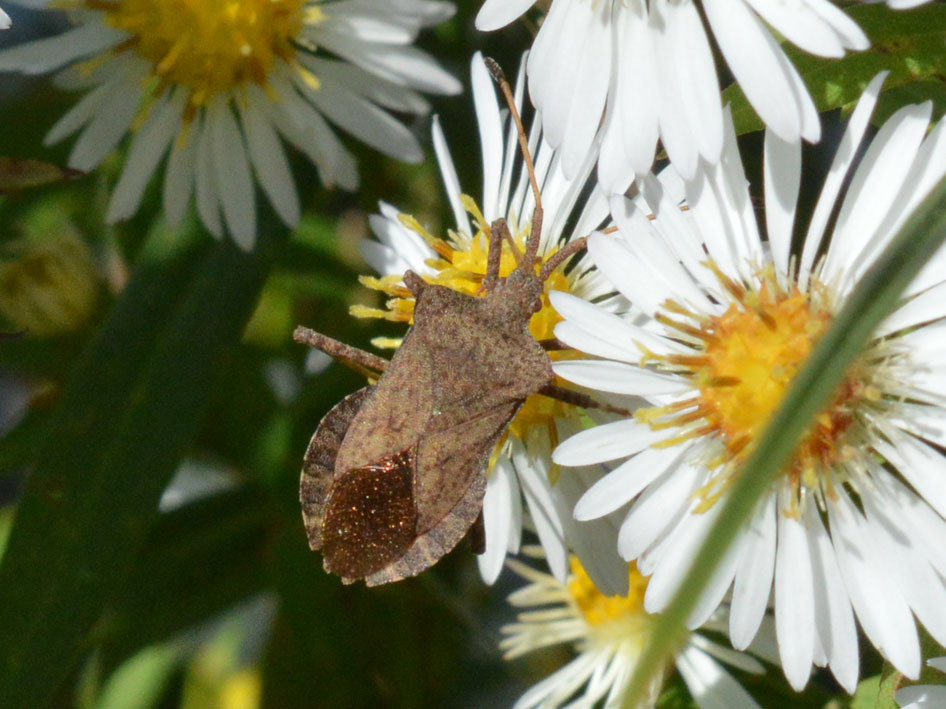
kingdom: Animalia
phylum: Arthropoda
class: Insecta
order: Hemiptera
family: Coreidae
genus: Coreus
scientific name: Coreus marginatus
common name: Dock bug
